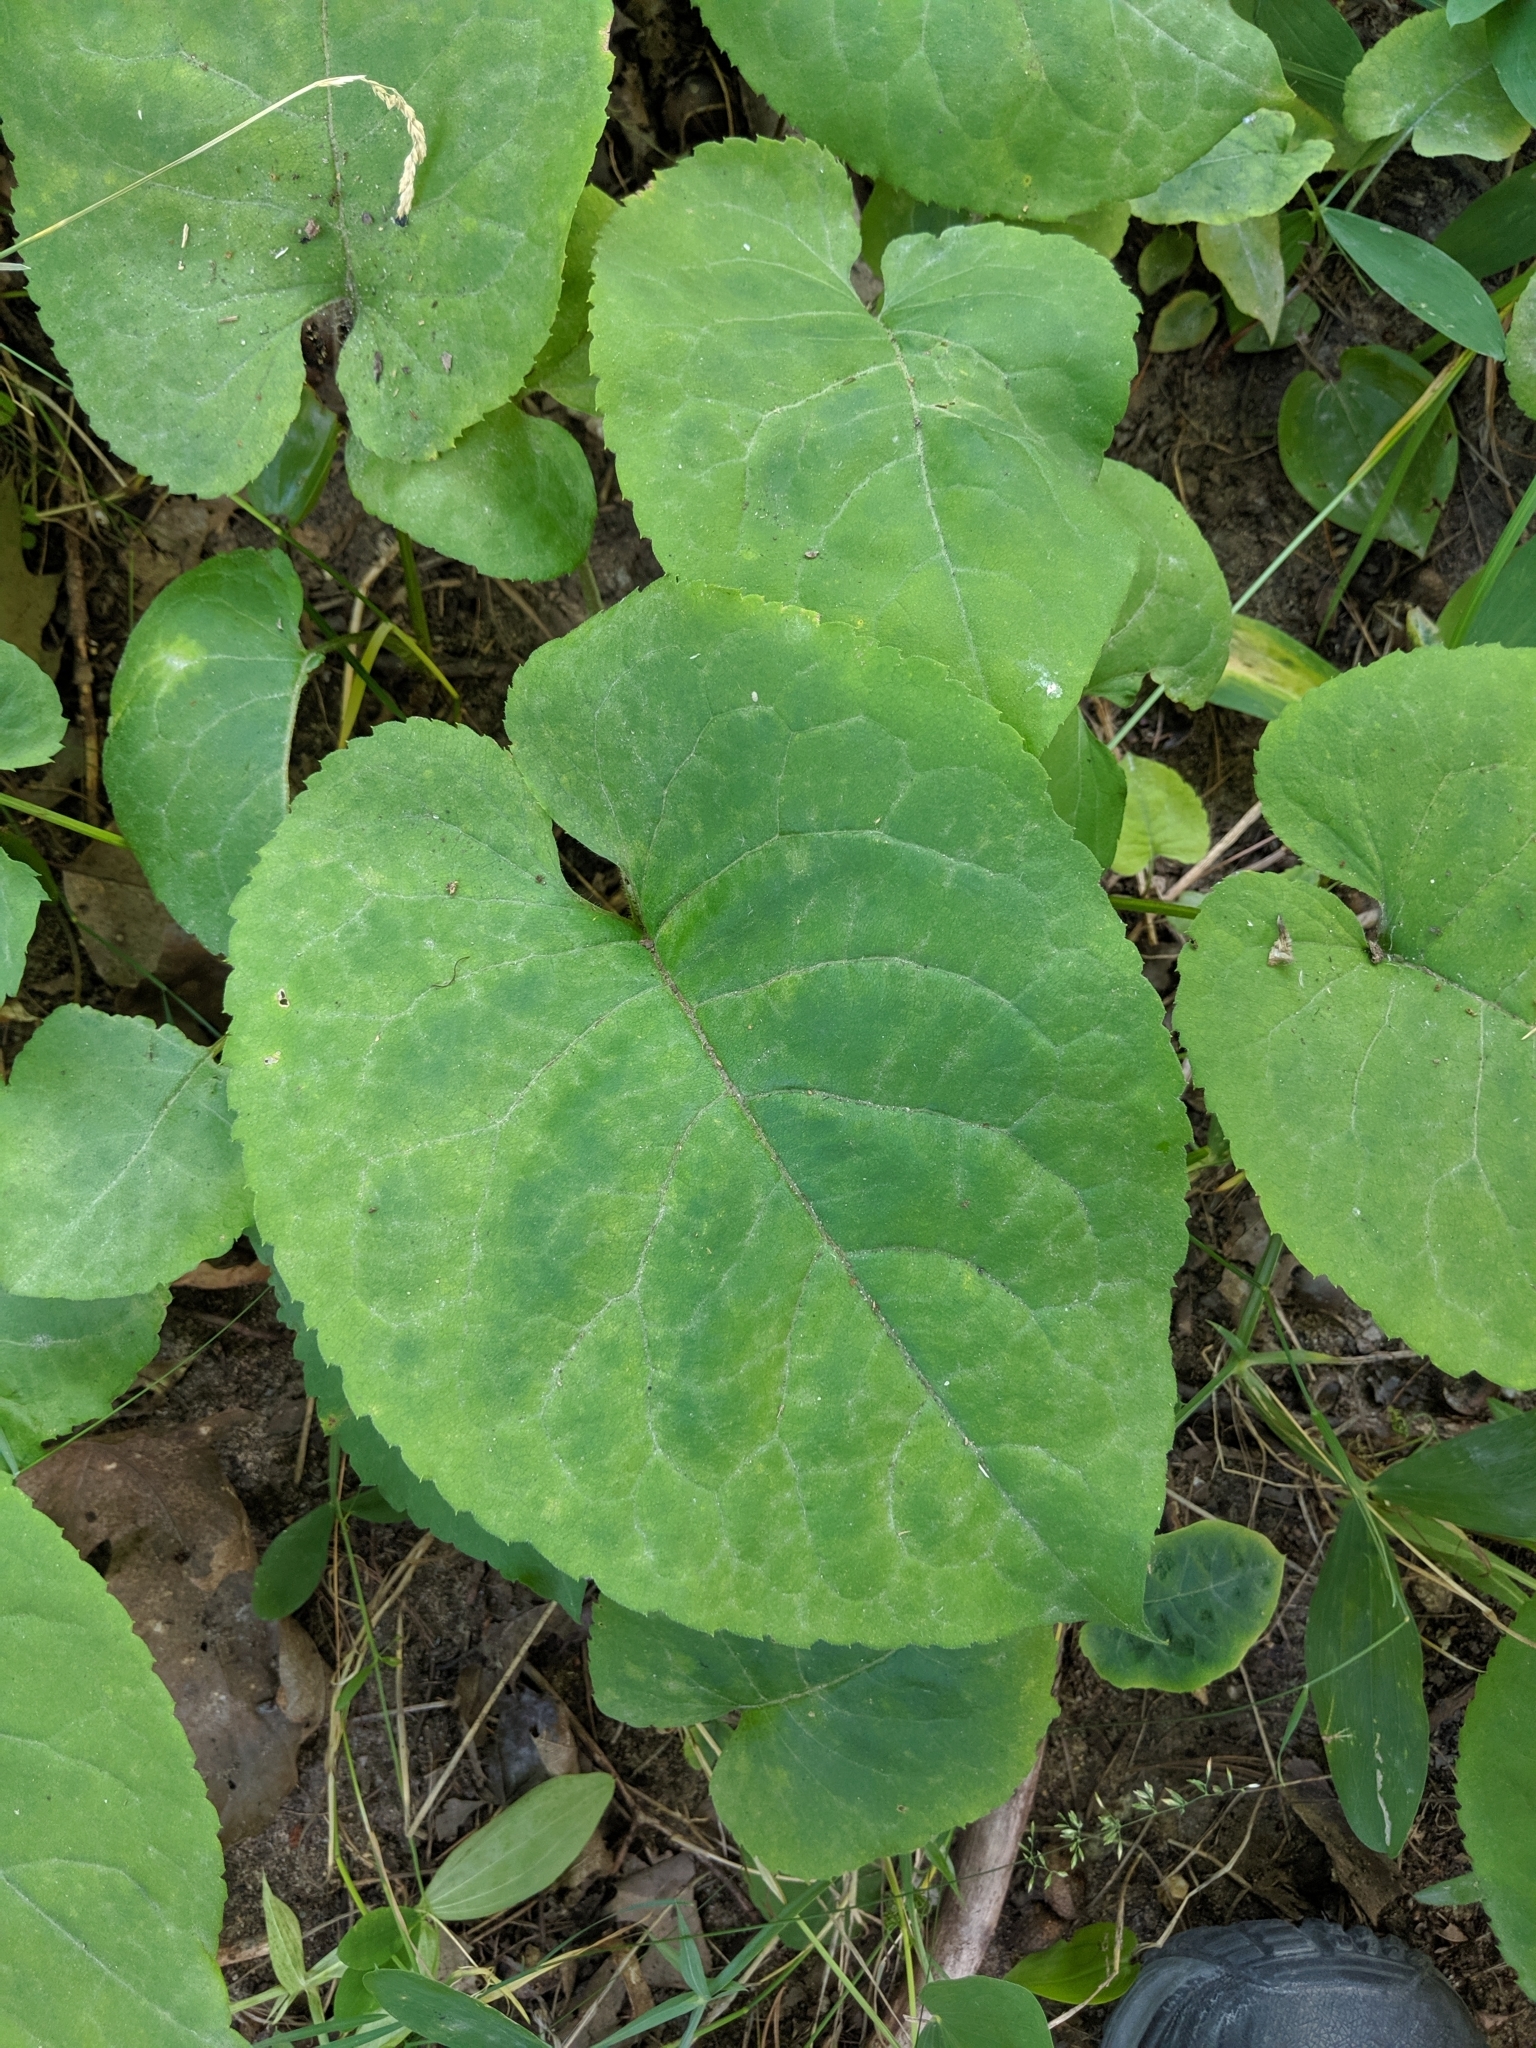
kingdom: Plantae
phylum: Tracheophyta
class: Magnoliopsida
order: Asterales
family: Asteraceae
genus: Eurybia
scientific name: Eurybia macrophylla
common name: Big-leaved aster
